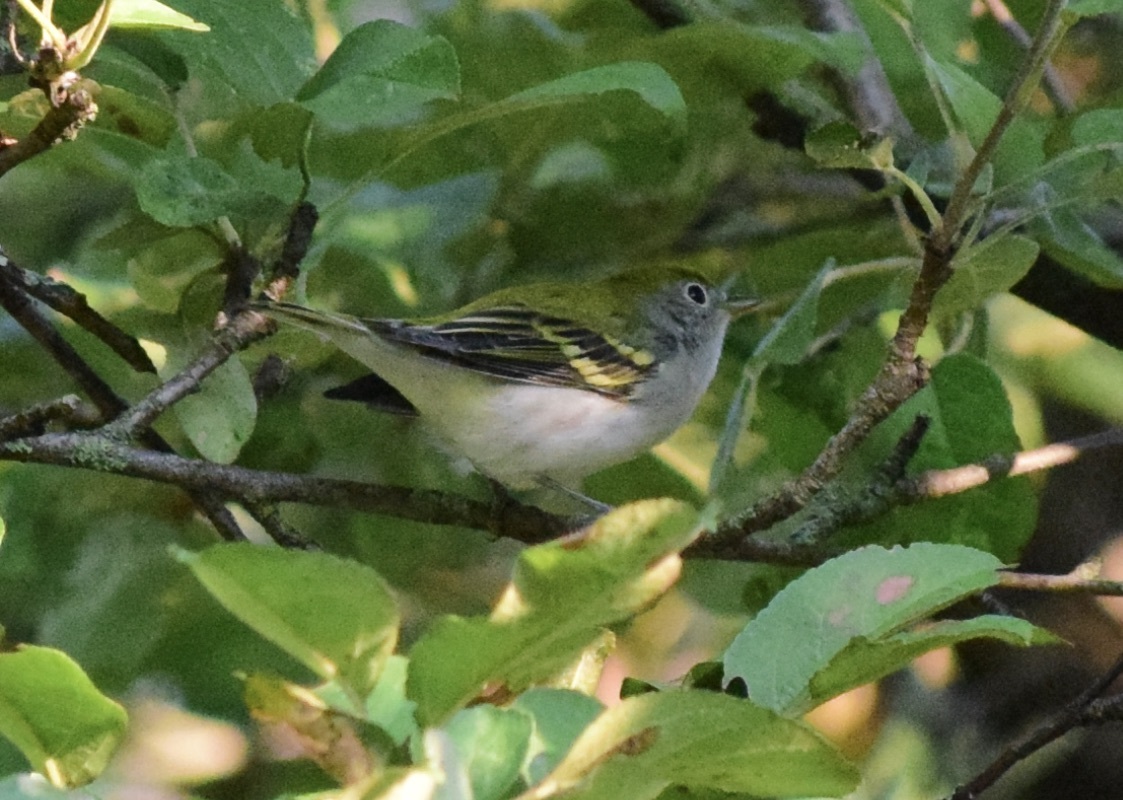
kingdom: Animalia
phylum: Chordata
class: Aves
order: Passeriformes
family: Parulidae
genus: Setophaga
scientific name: Setophaga pensylvanica
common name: Chestnut-sided warbler
